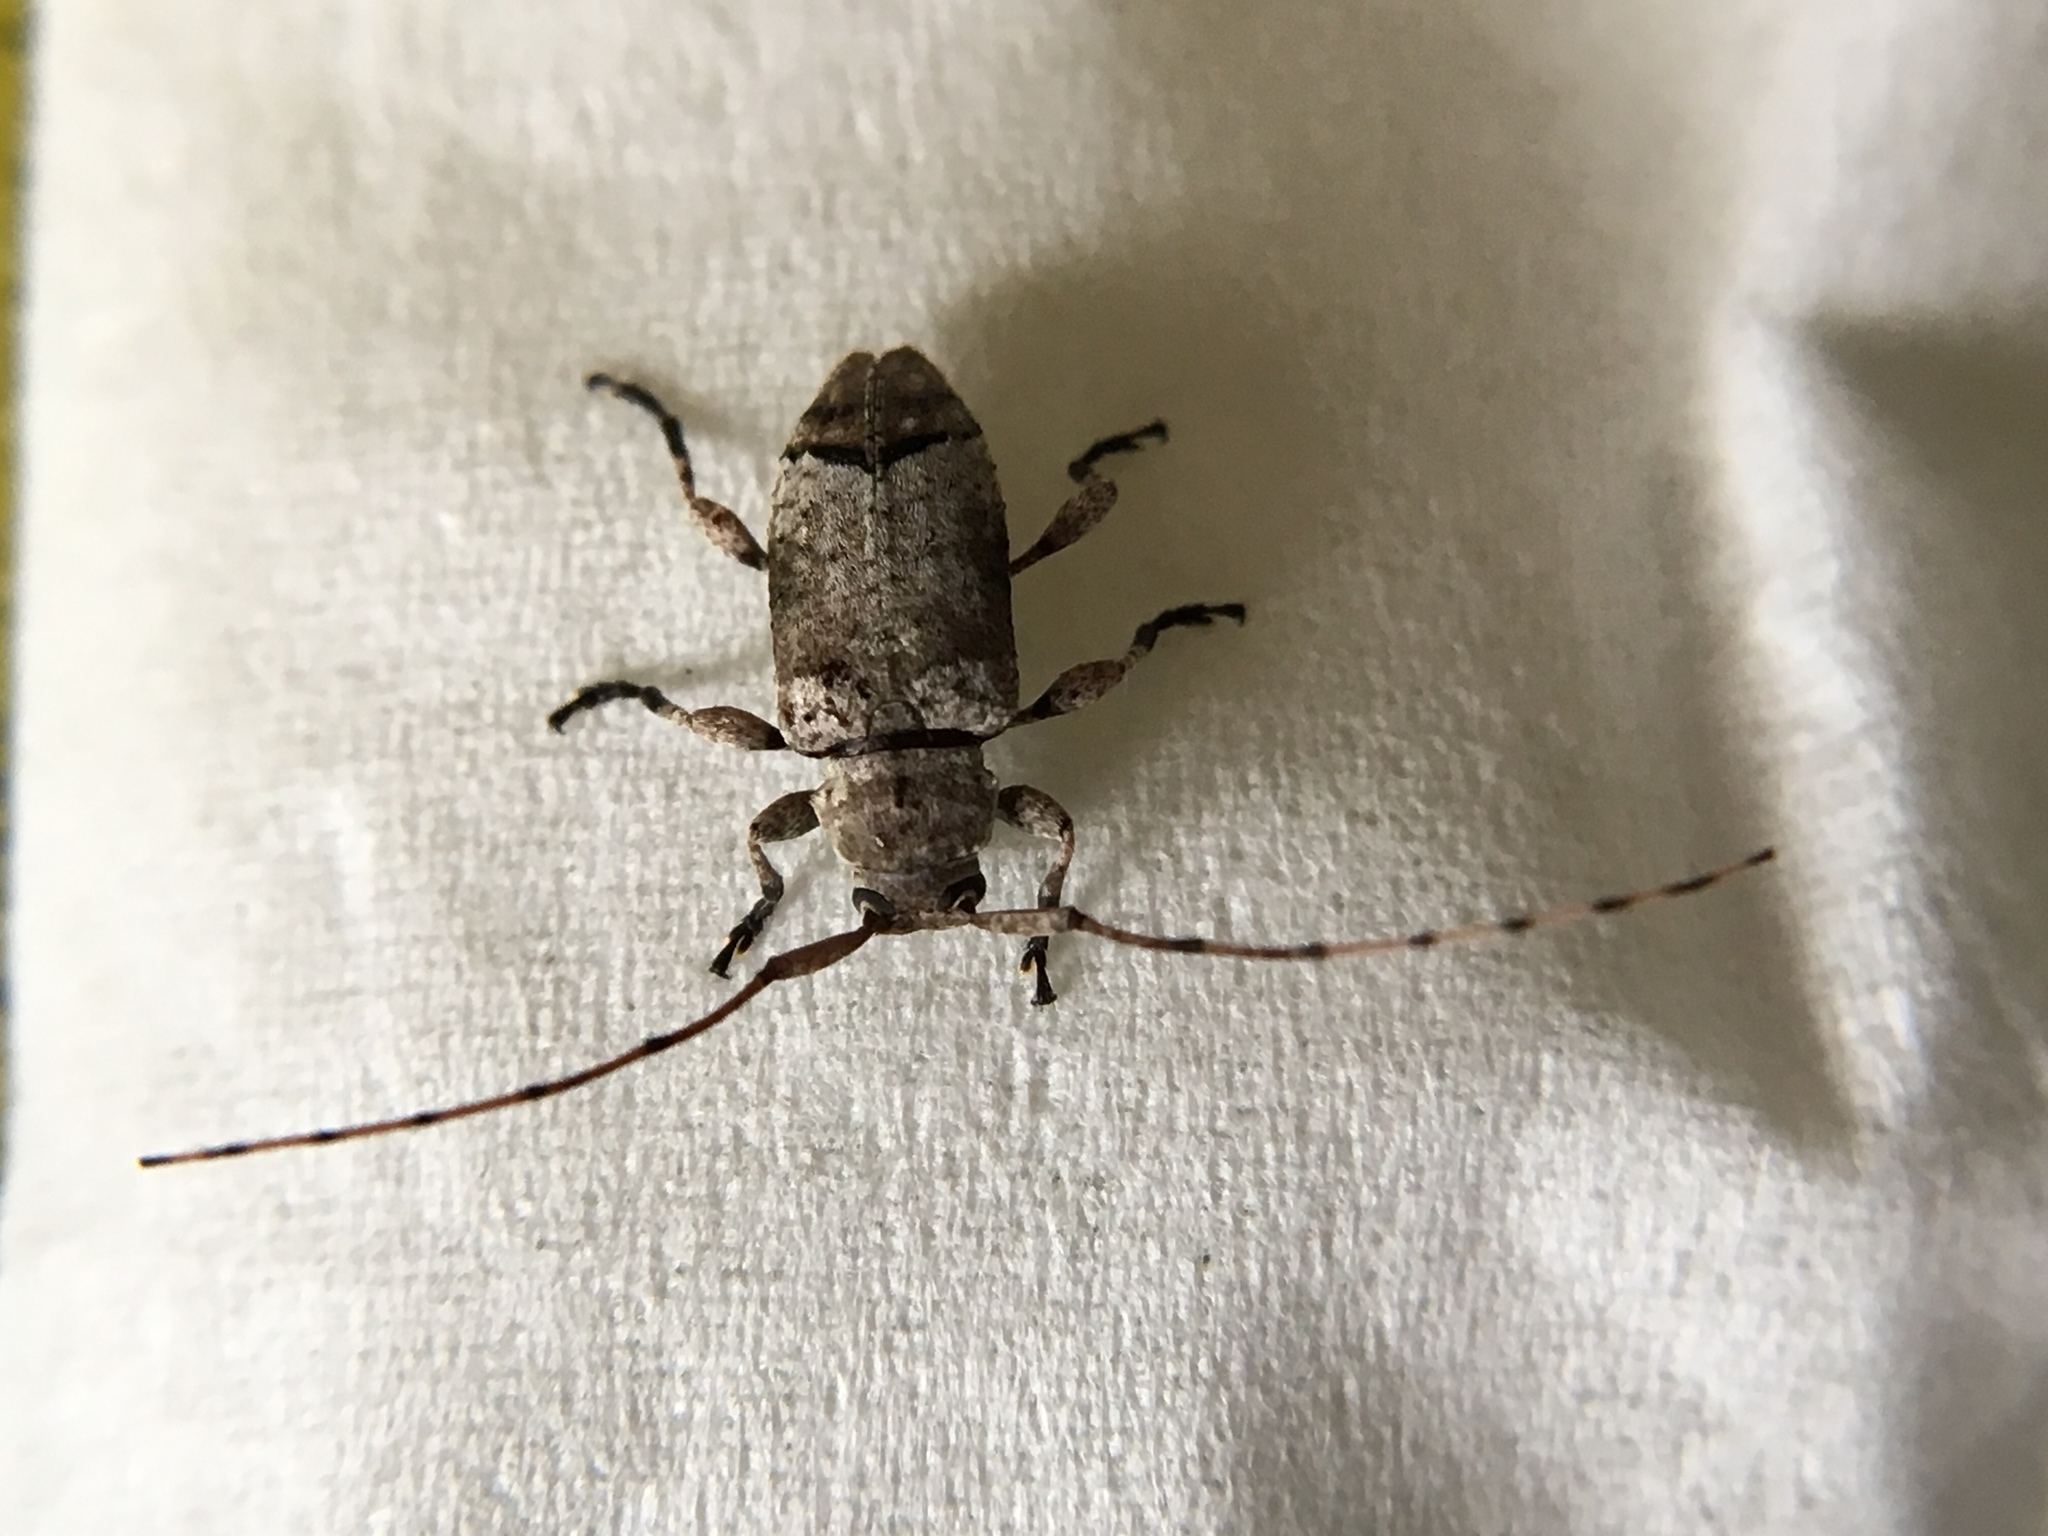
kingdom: Animalia
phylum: Arthropoda
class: Insecta
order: Coleoptera
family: Cerambycidae
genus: Sternidius
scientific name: Sternidius alpha
